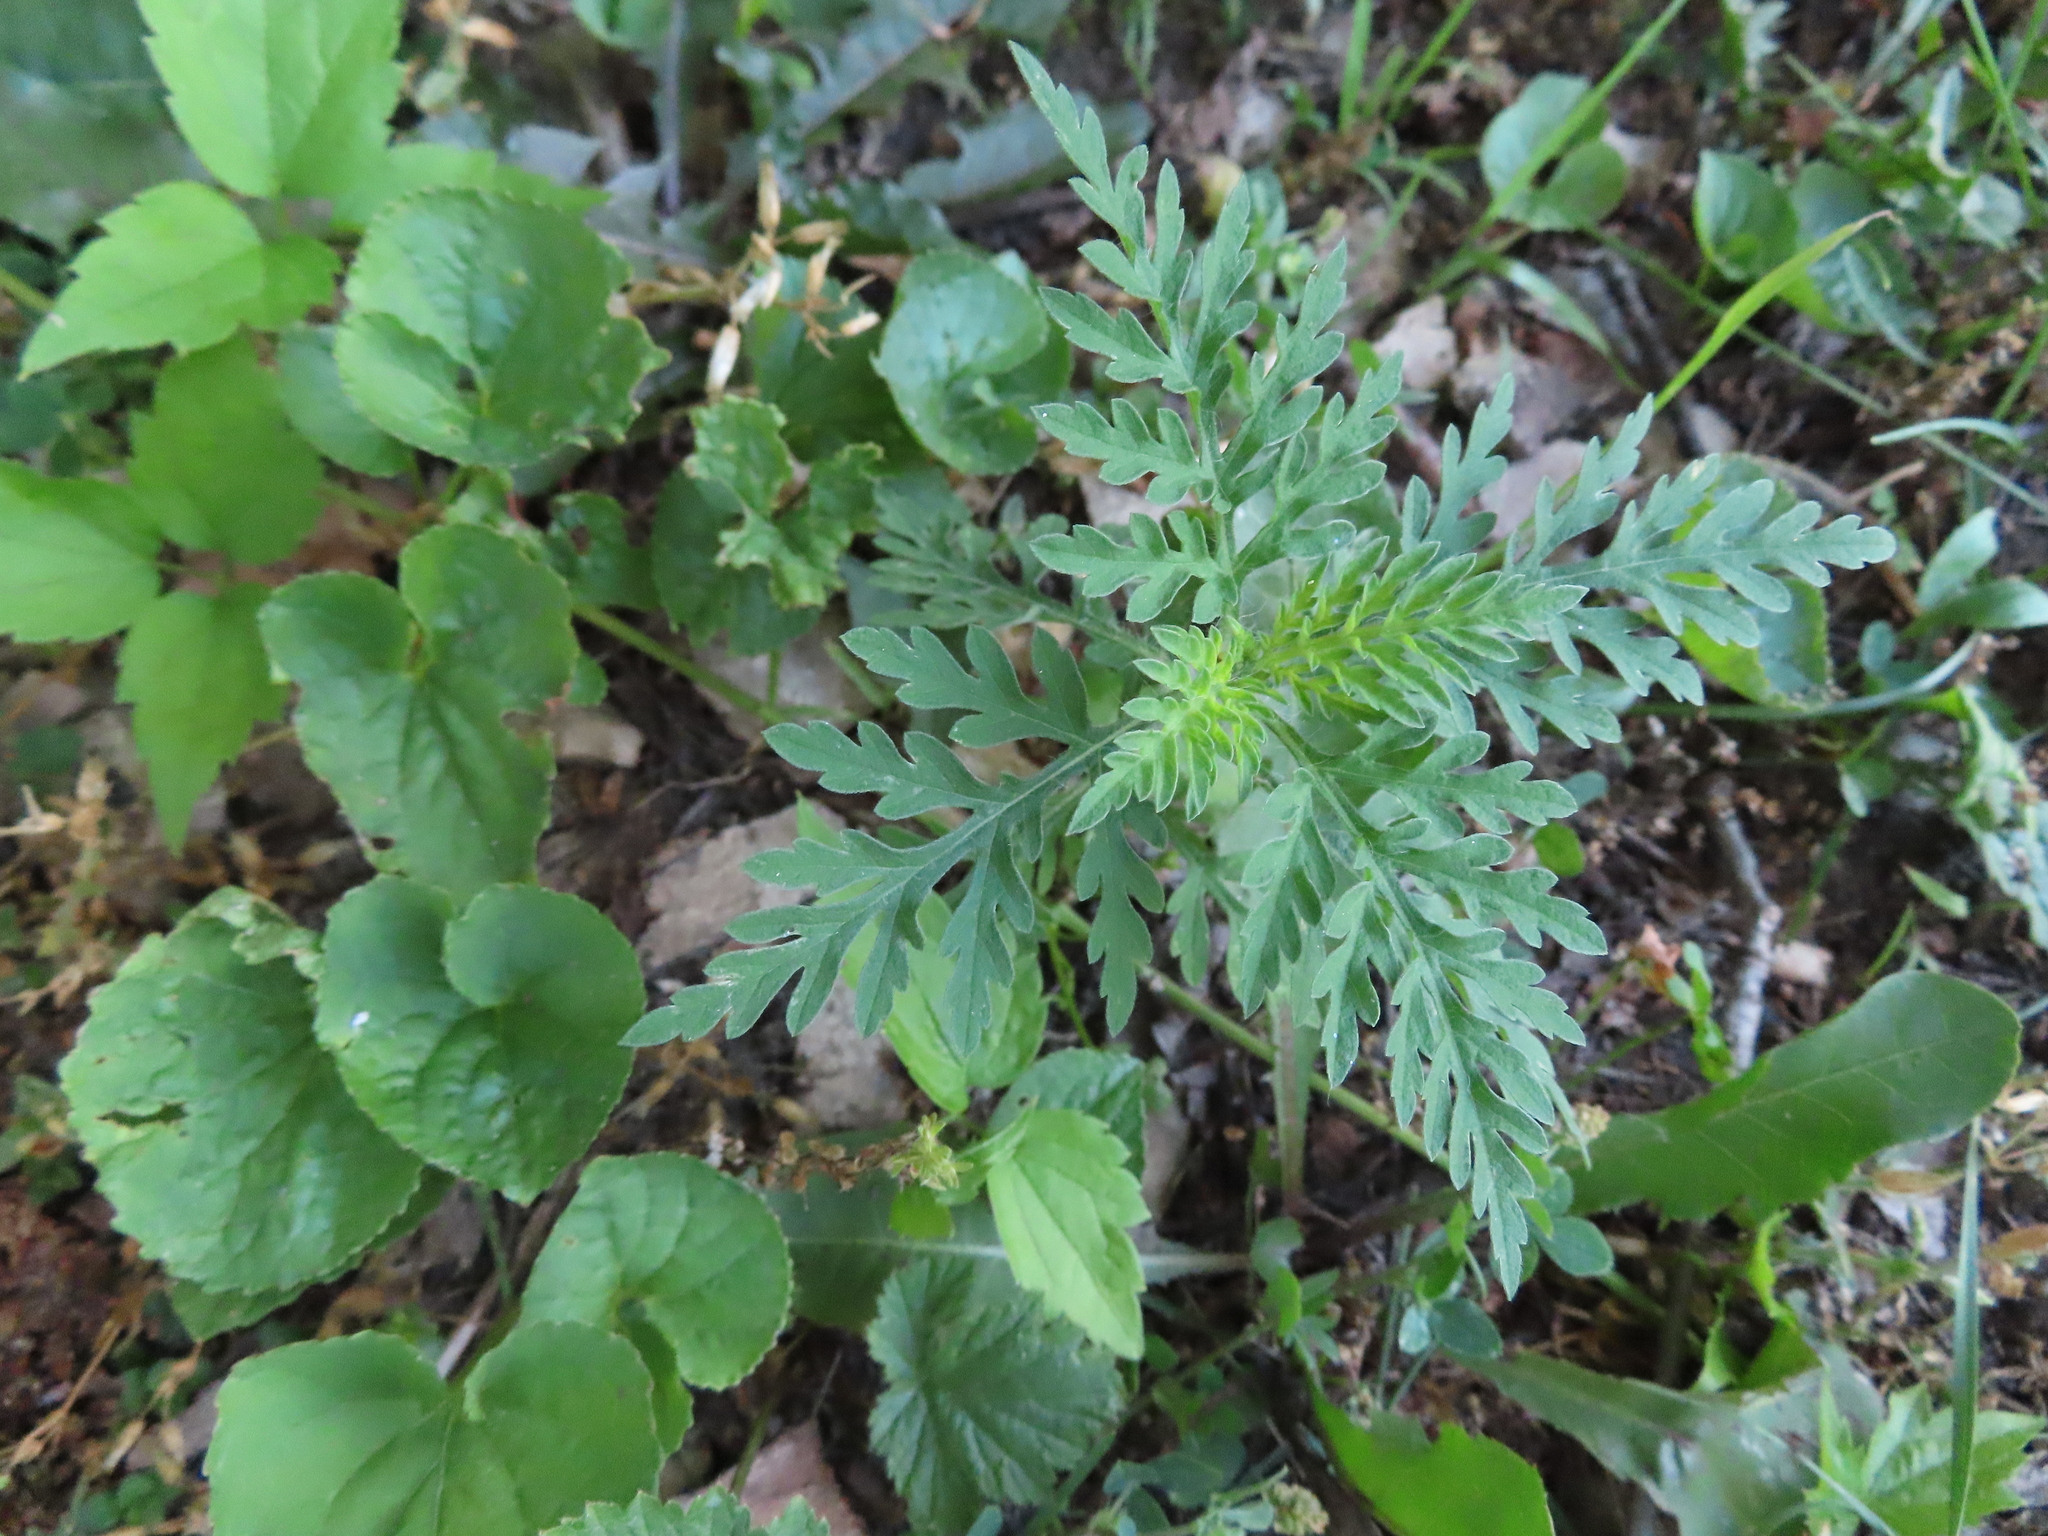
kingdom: Plantae
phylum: Tracheophyta
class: Magnoliopsida
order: Asterales
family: Asteraceae
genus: Ambrosia
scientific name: Ambrosia artemisiifolia
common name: Annual ragweed
